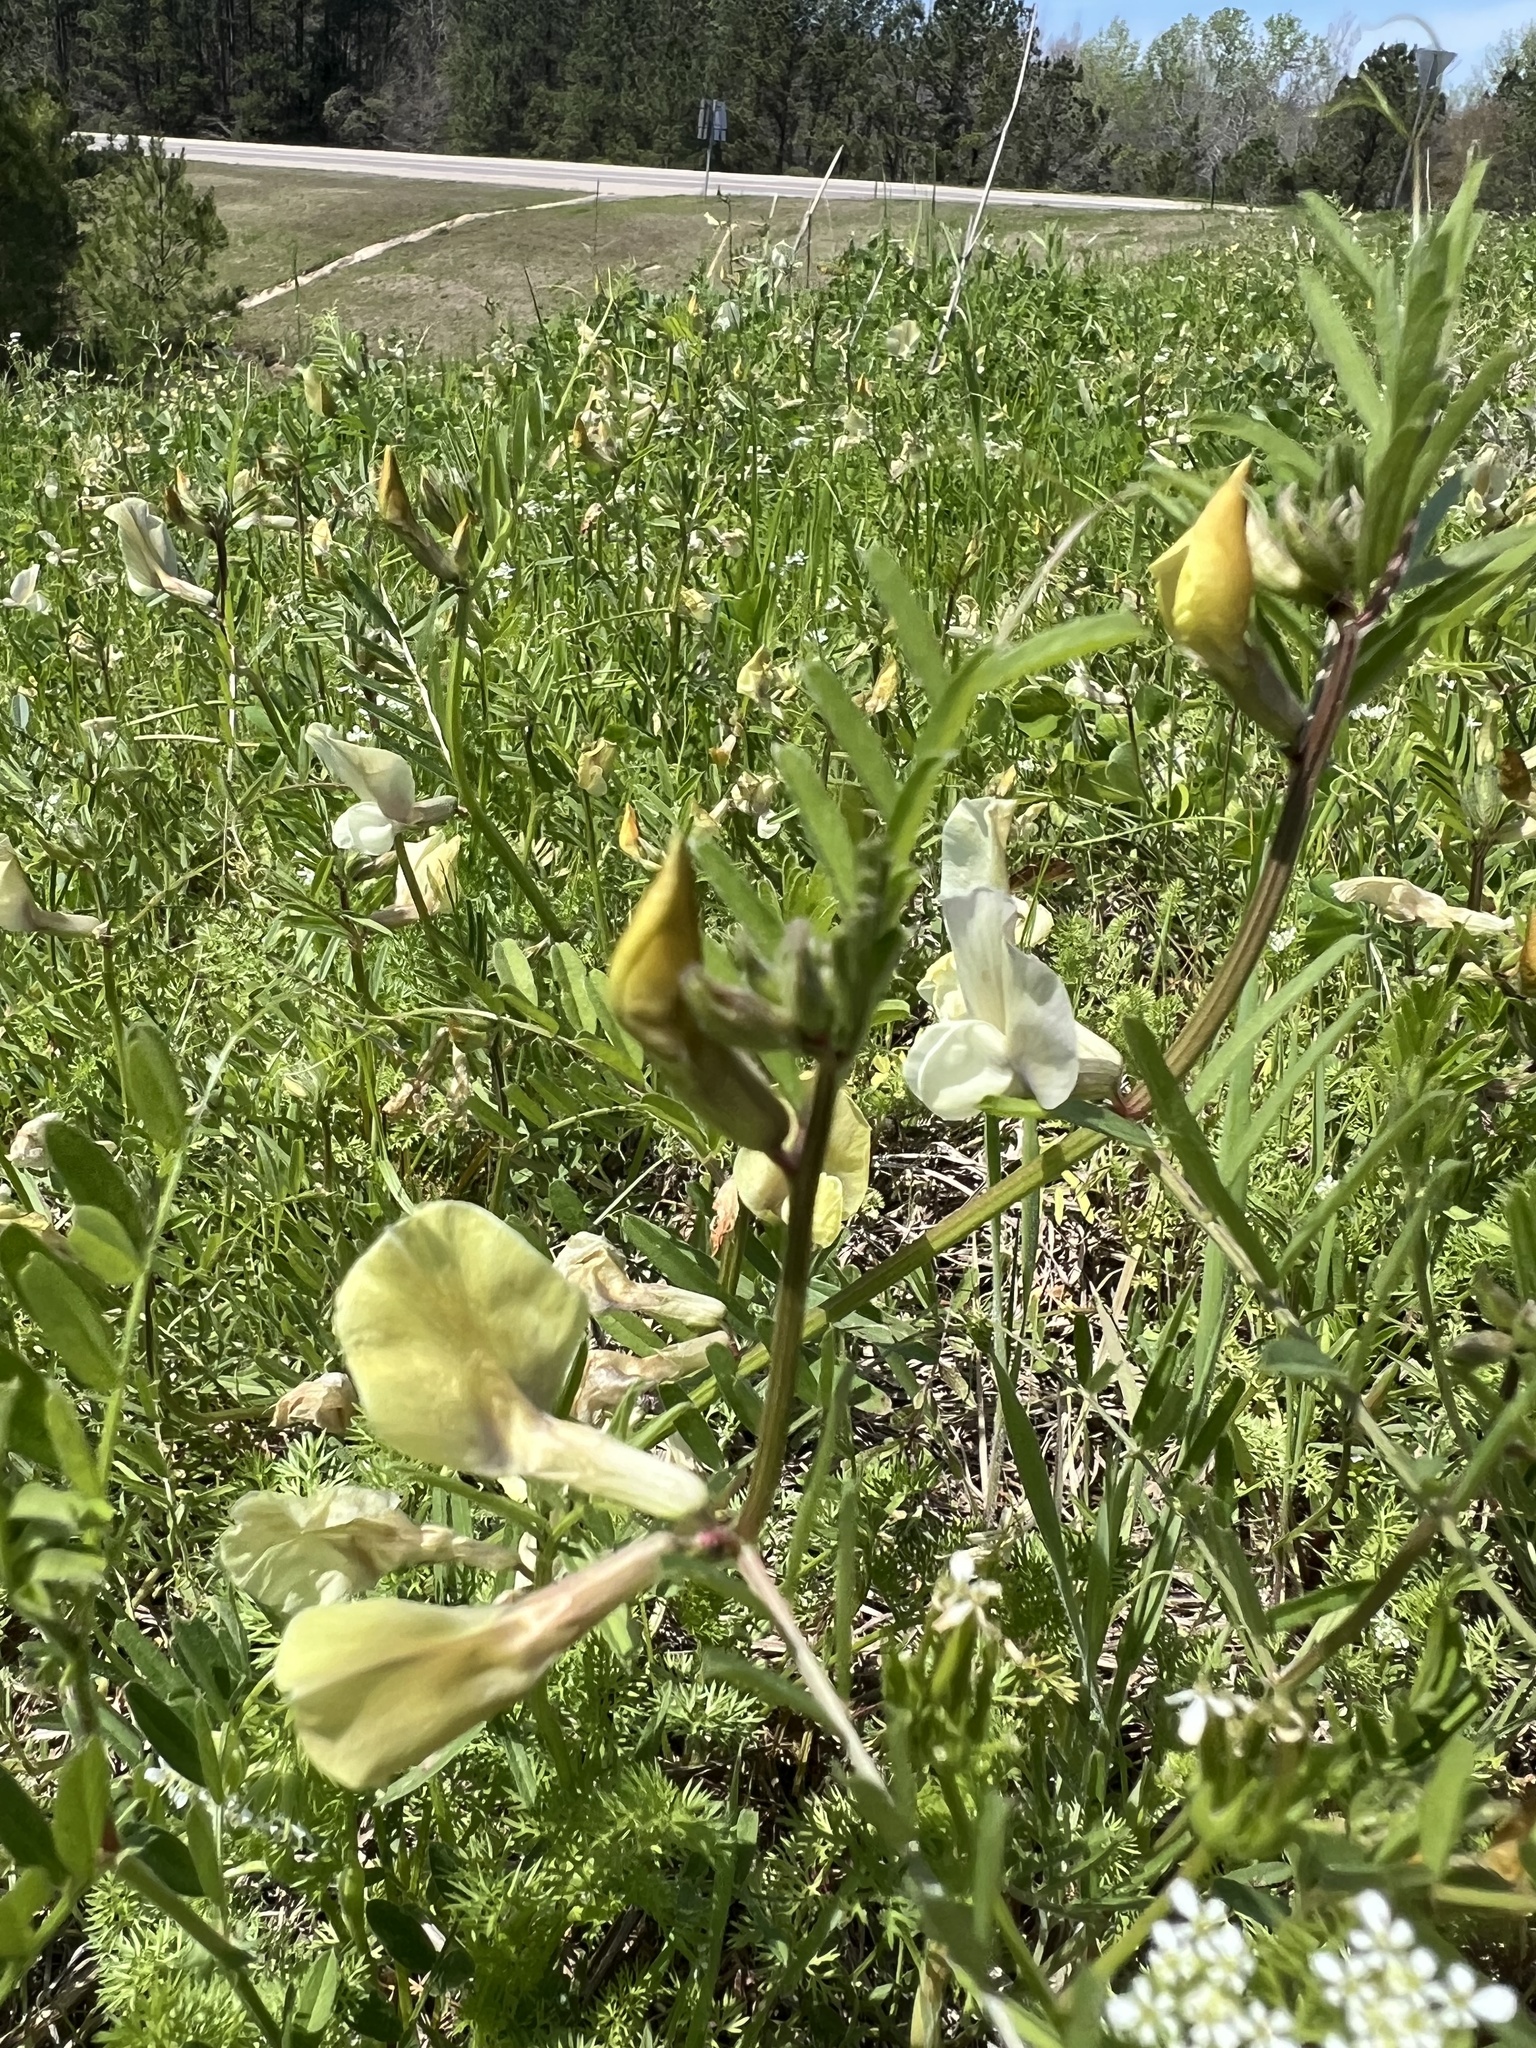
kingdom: Plantae
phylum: Tracheophyta
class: Magnoliopsida
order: Fabales
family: Fabaceae
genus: Vicia
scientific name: Vicia grandiflora
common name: Large yellow vetch
